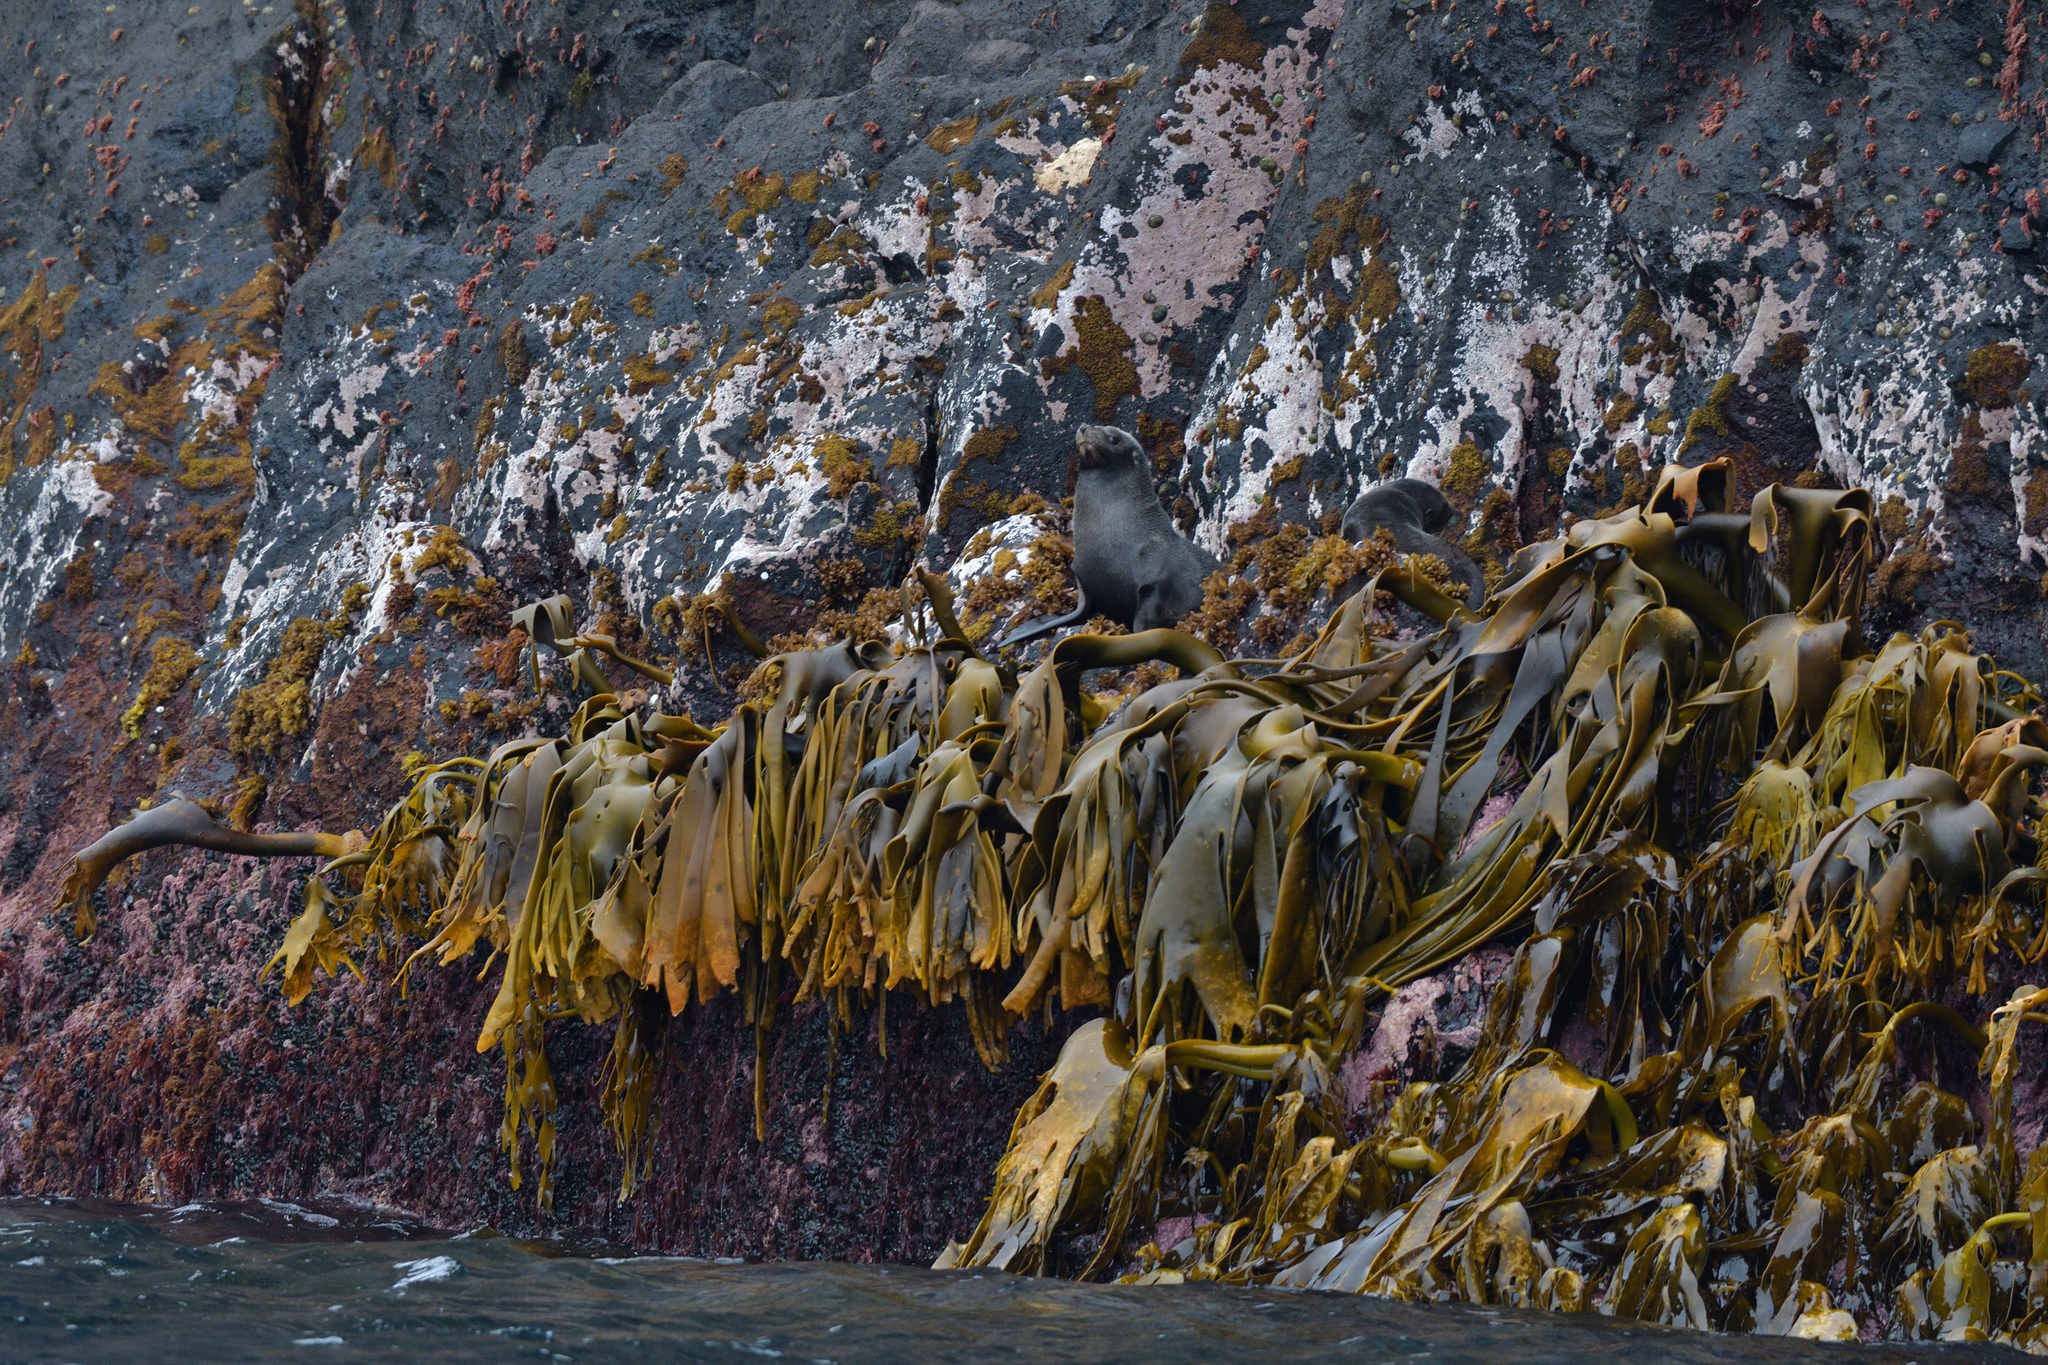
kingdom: Chromista
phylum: Ochrophyta
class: Phaeophyceae
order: Fucales
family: Durvillaeaceae
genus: Durvillaea
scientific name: Durvillaea
